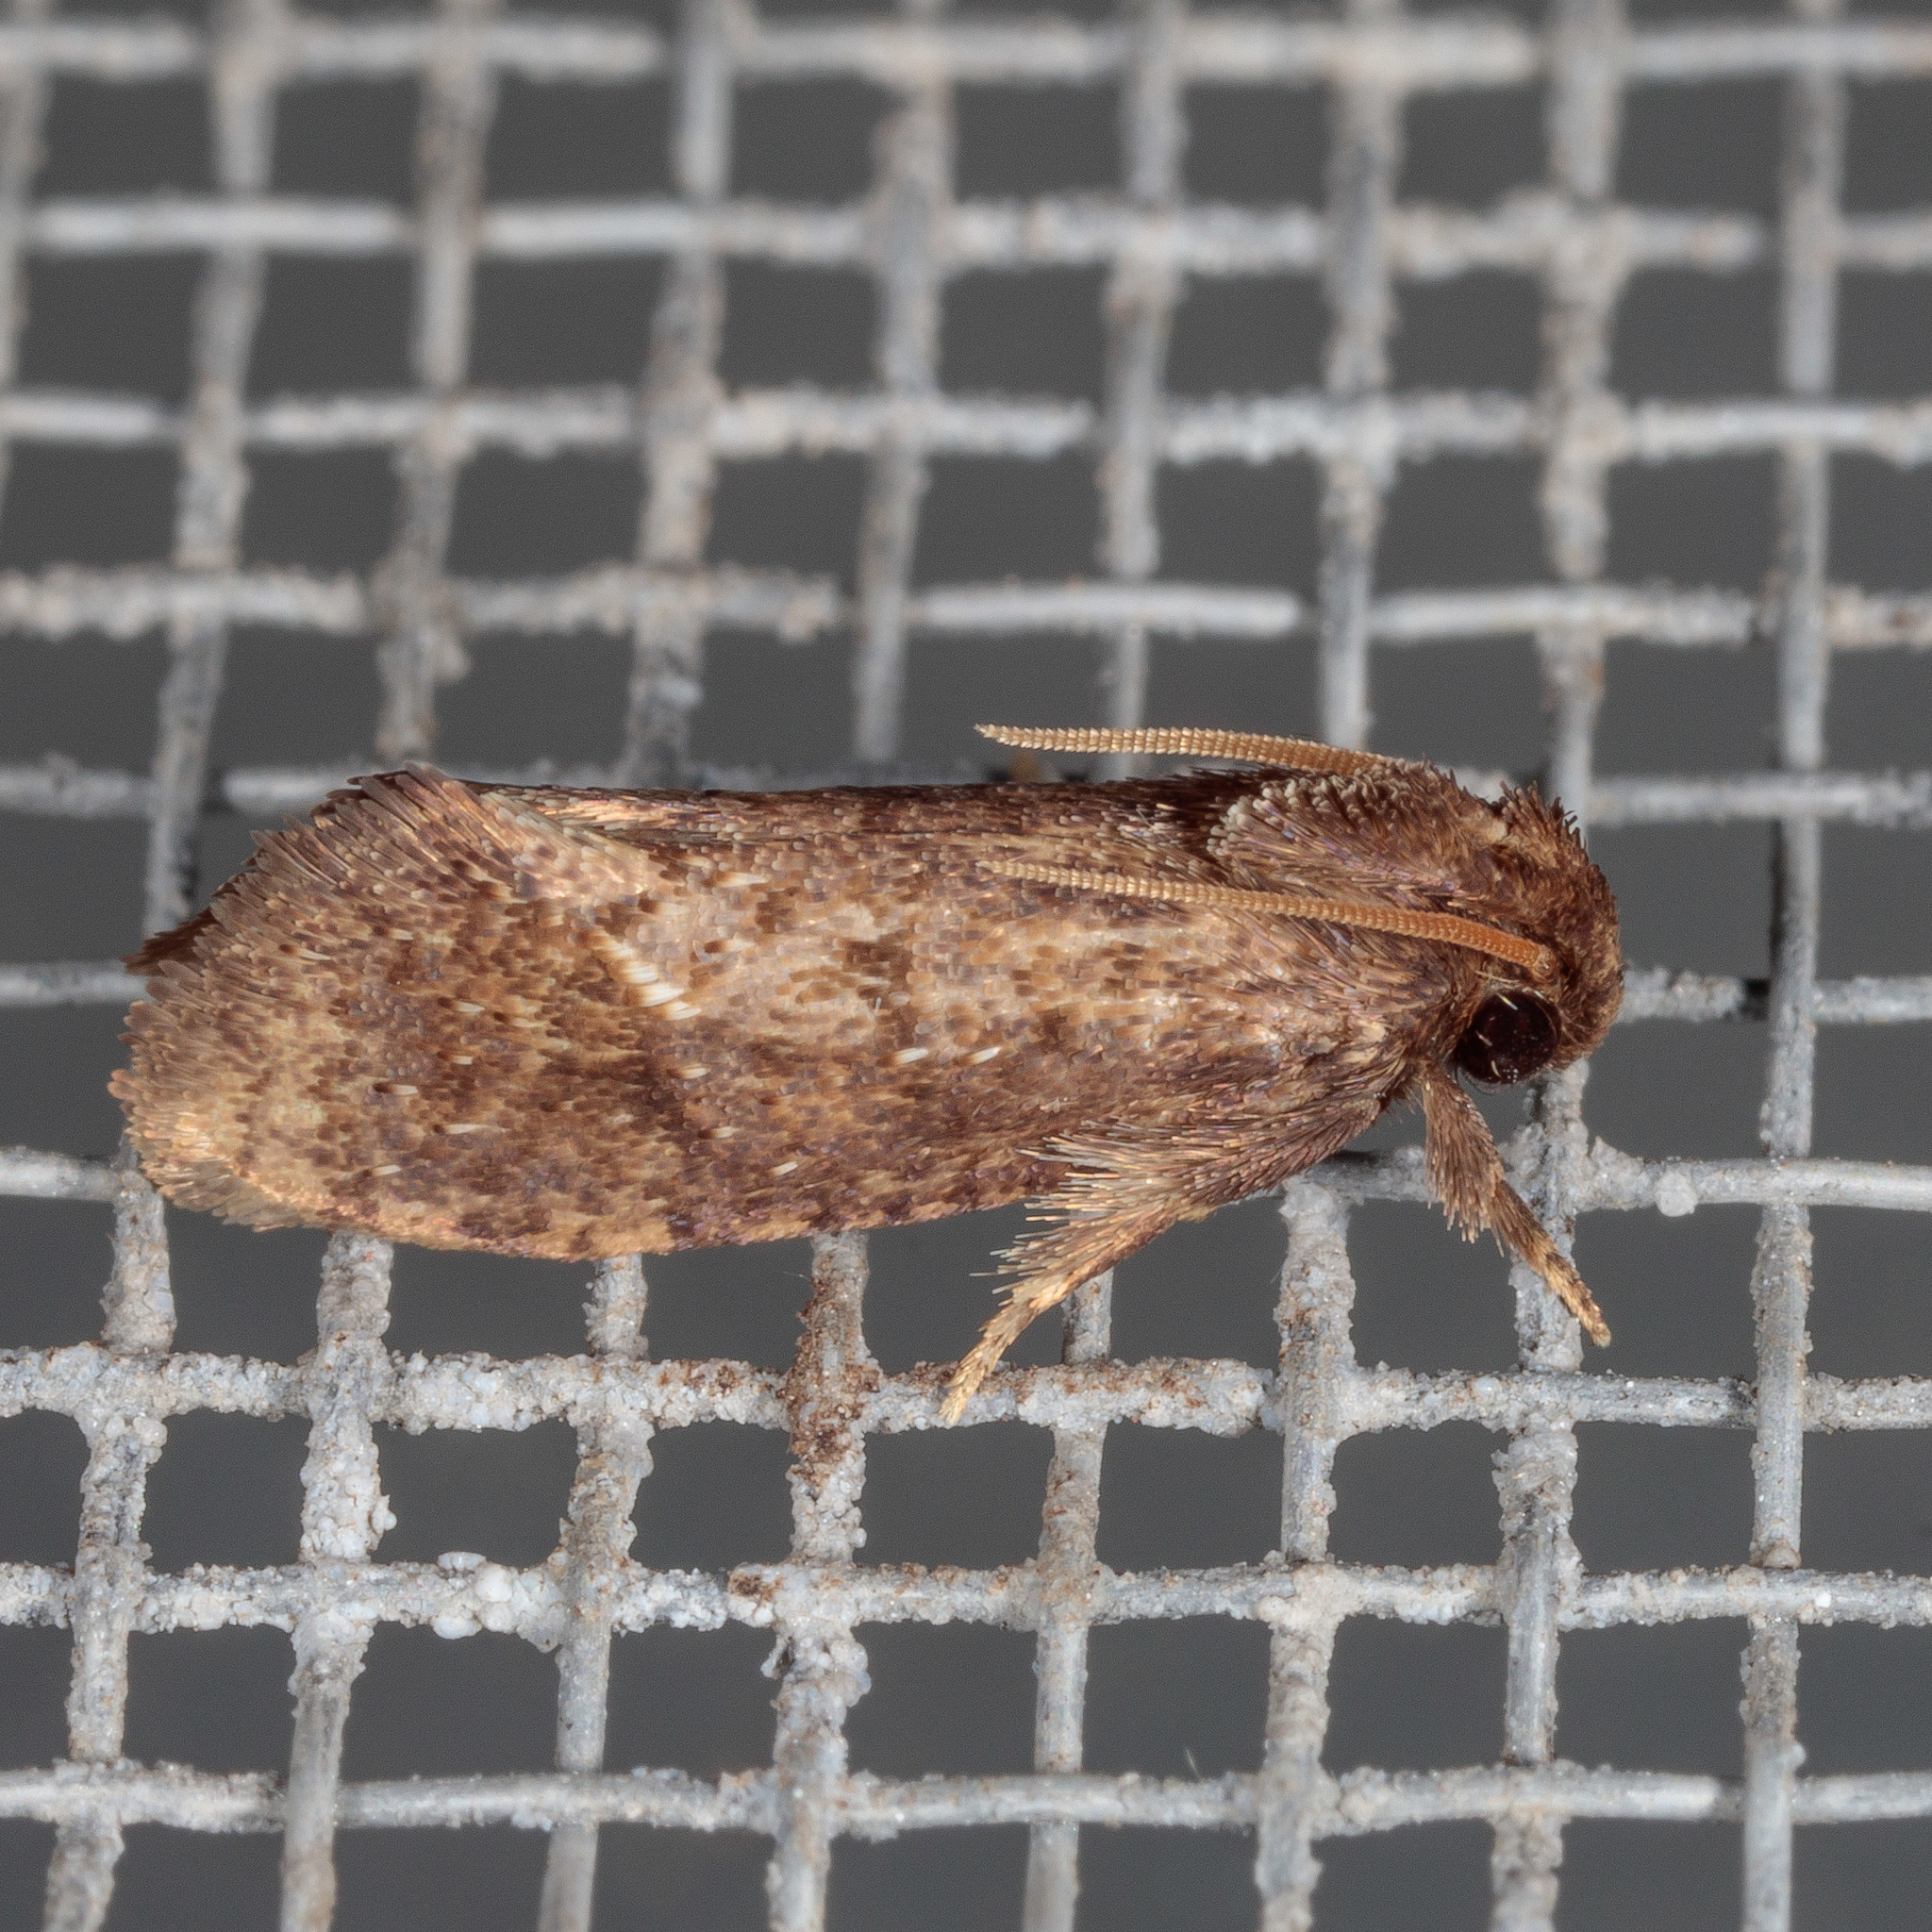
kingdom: Animalia
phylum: Arthropoda
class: Insecta
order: Lepidoptera
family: Tineidae
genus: Acrolophus
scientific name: Acrolophus texanella
